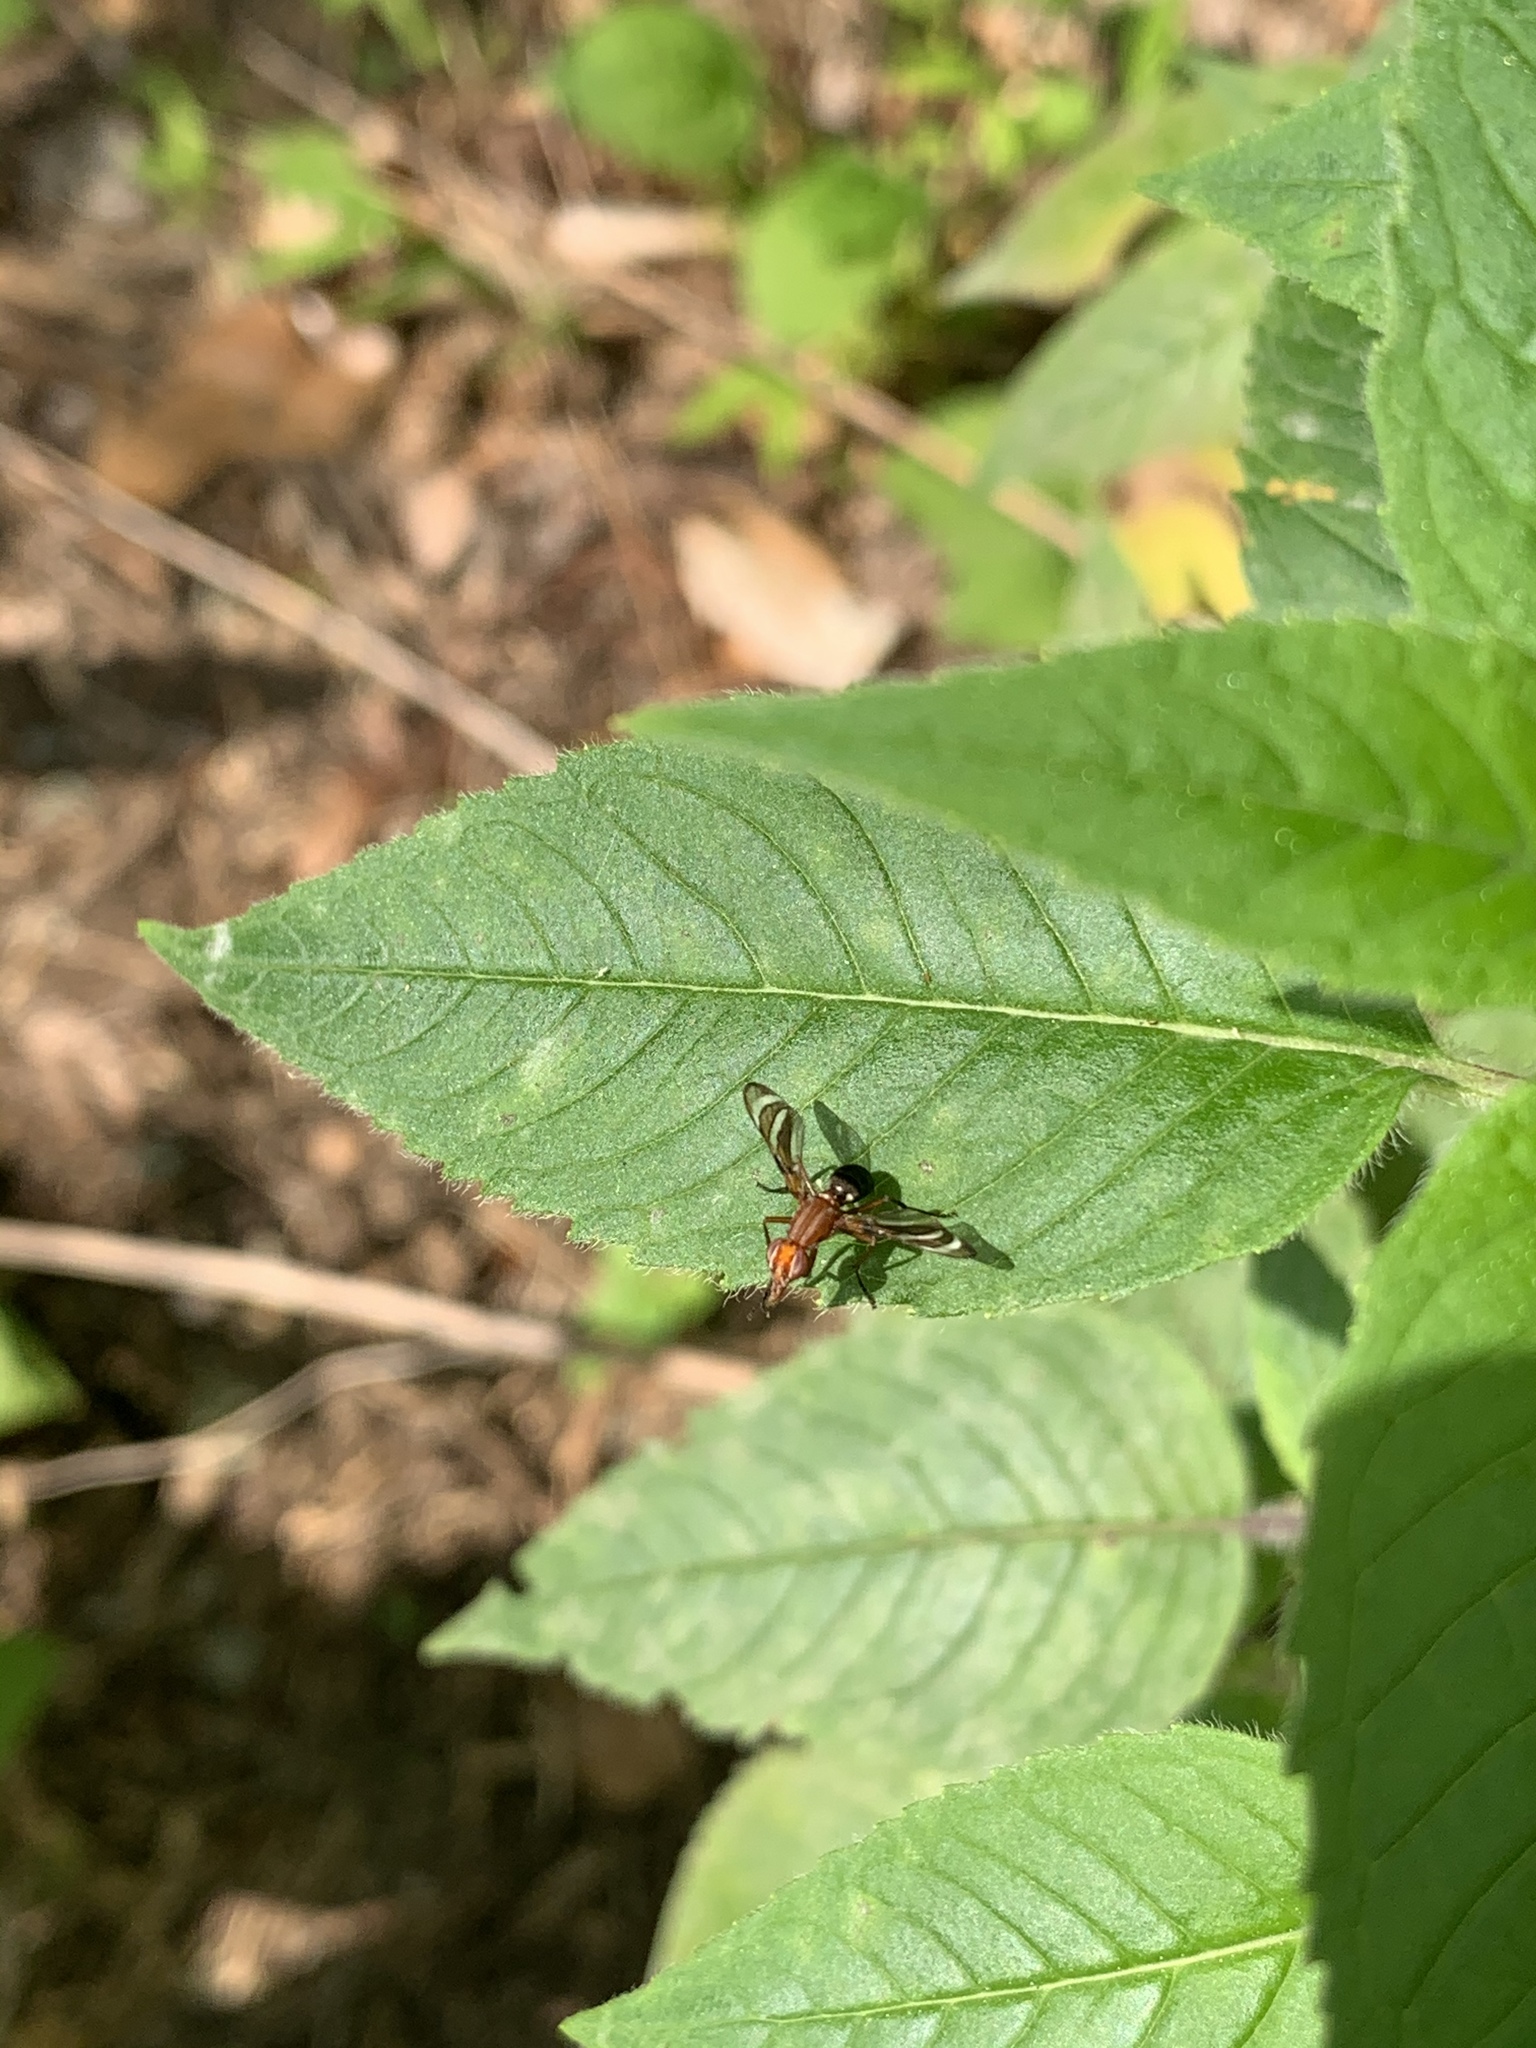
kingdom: Animalia
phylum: Arthropoda
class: Insecta
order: Diptera
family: Ulidiidae
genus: Tritoxa
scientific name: Tritoxa incurva
